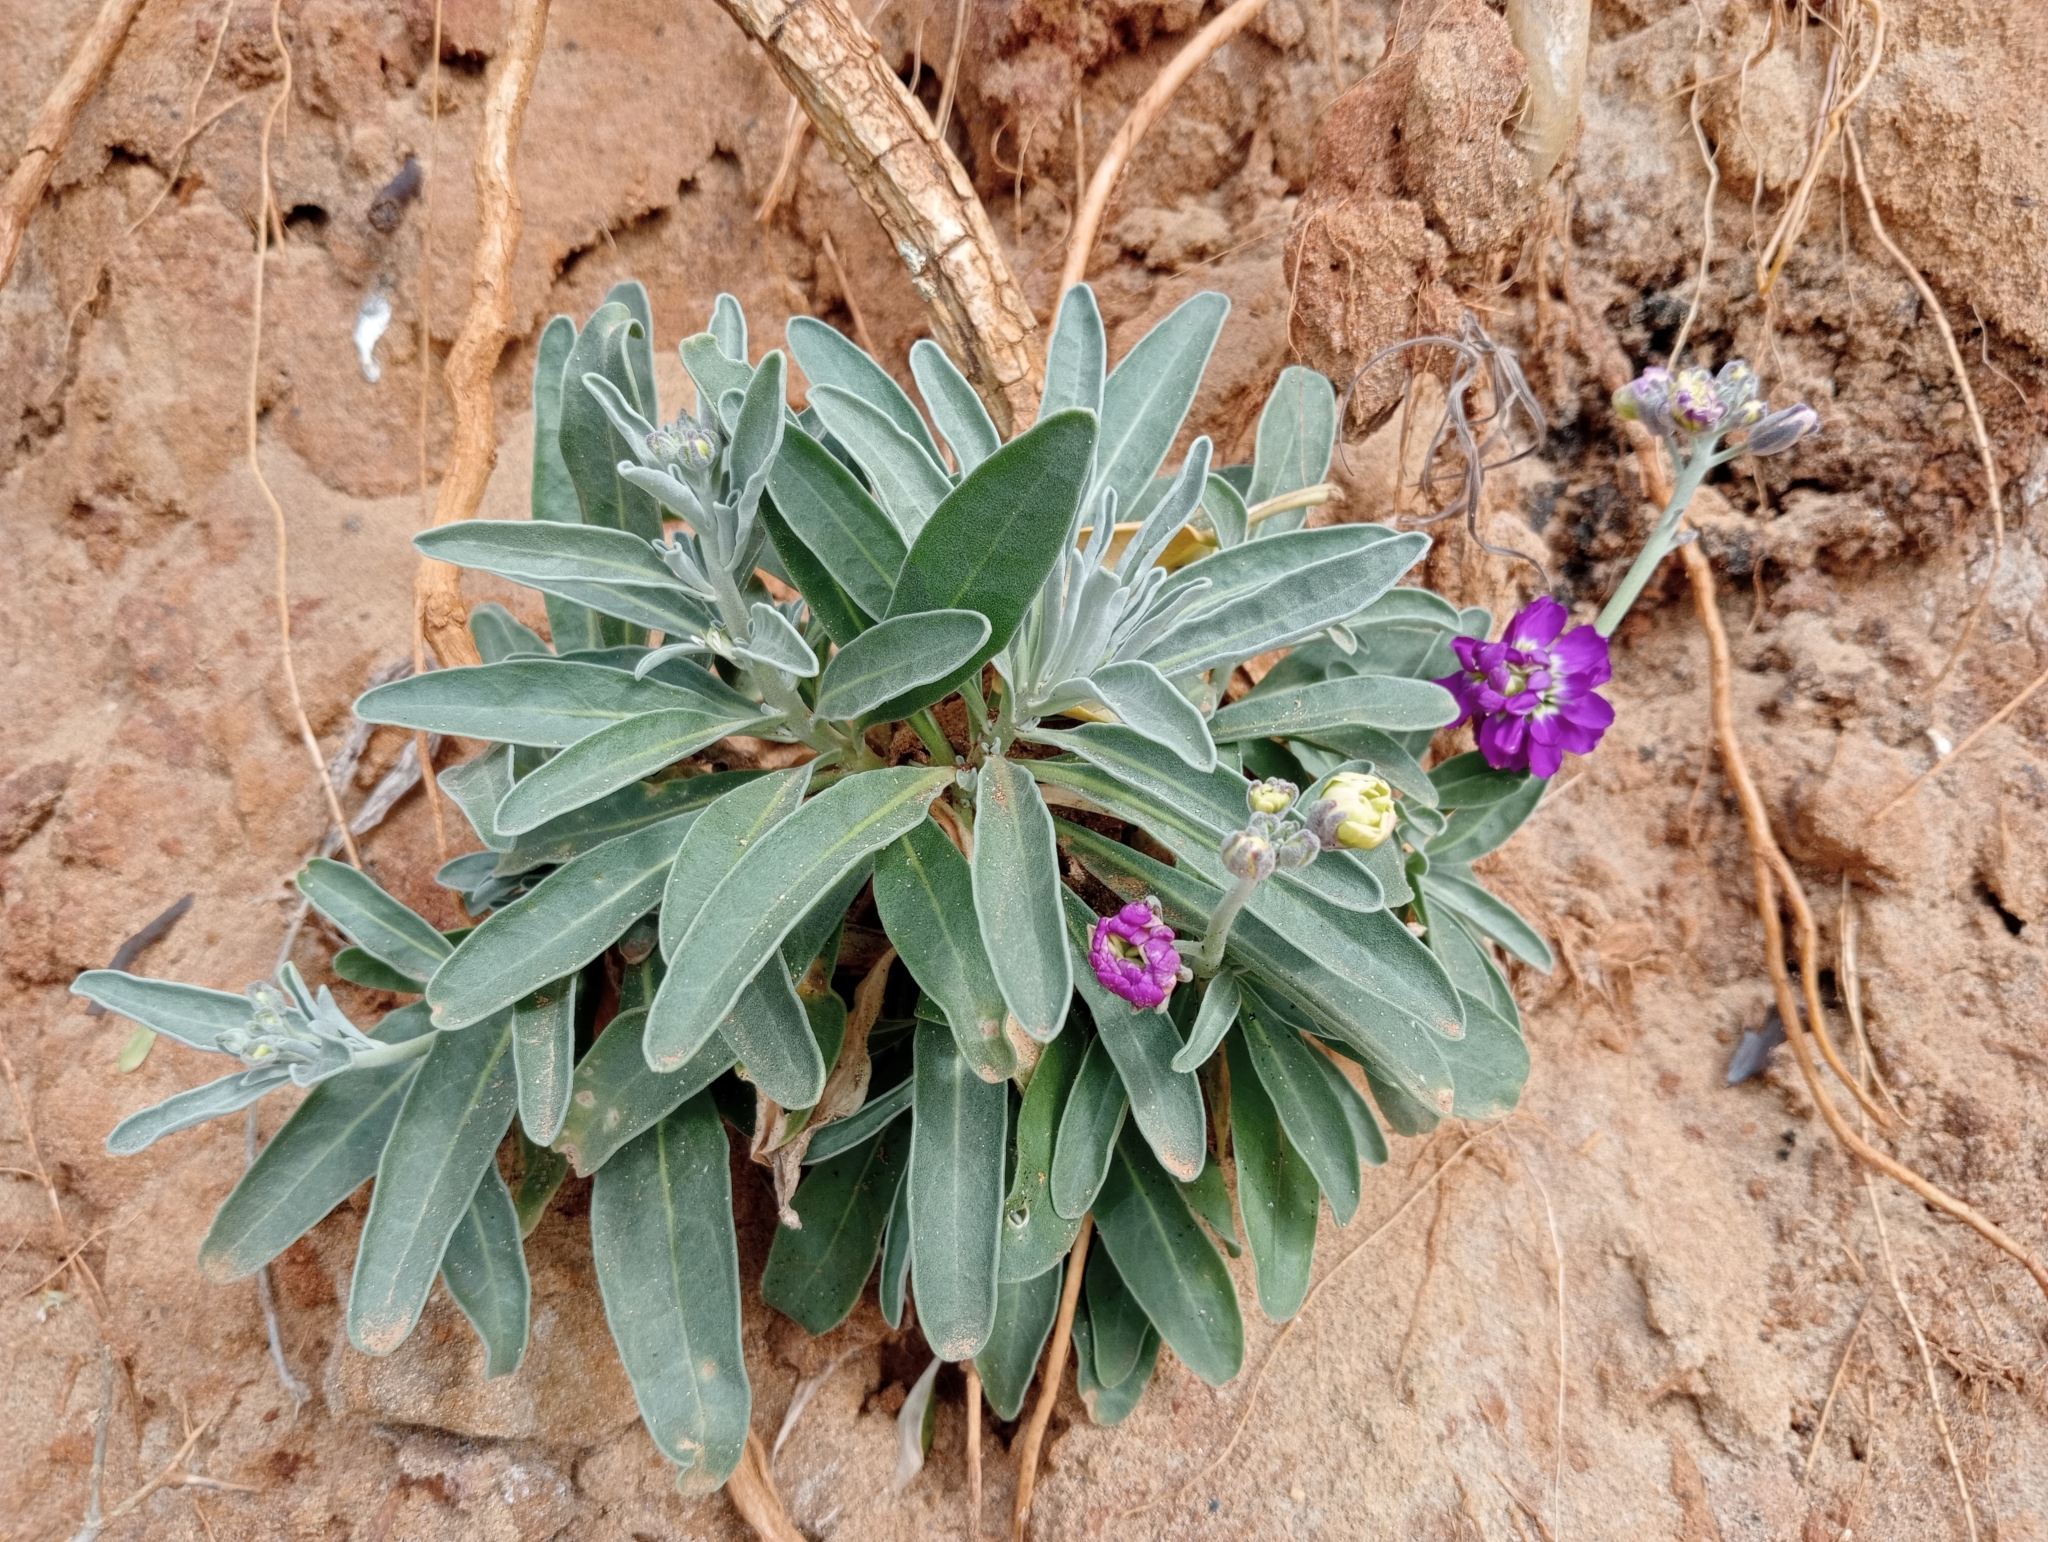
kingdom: Plantae
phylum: Tracheophyta
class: Magnoliopsida
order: Brassicales
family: Brassicaceae
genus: Matthiola
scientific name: Matthiola incana
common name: Hoary stock
